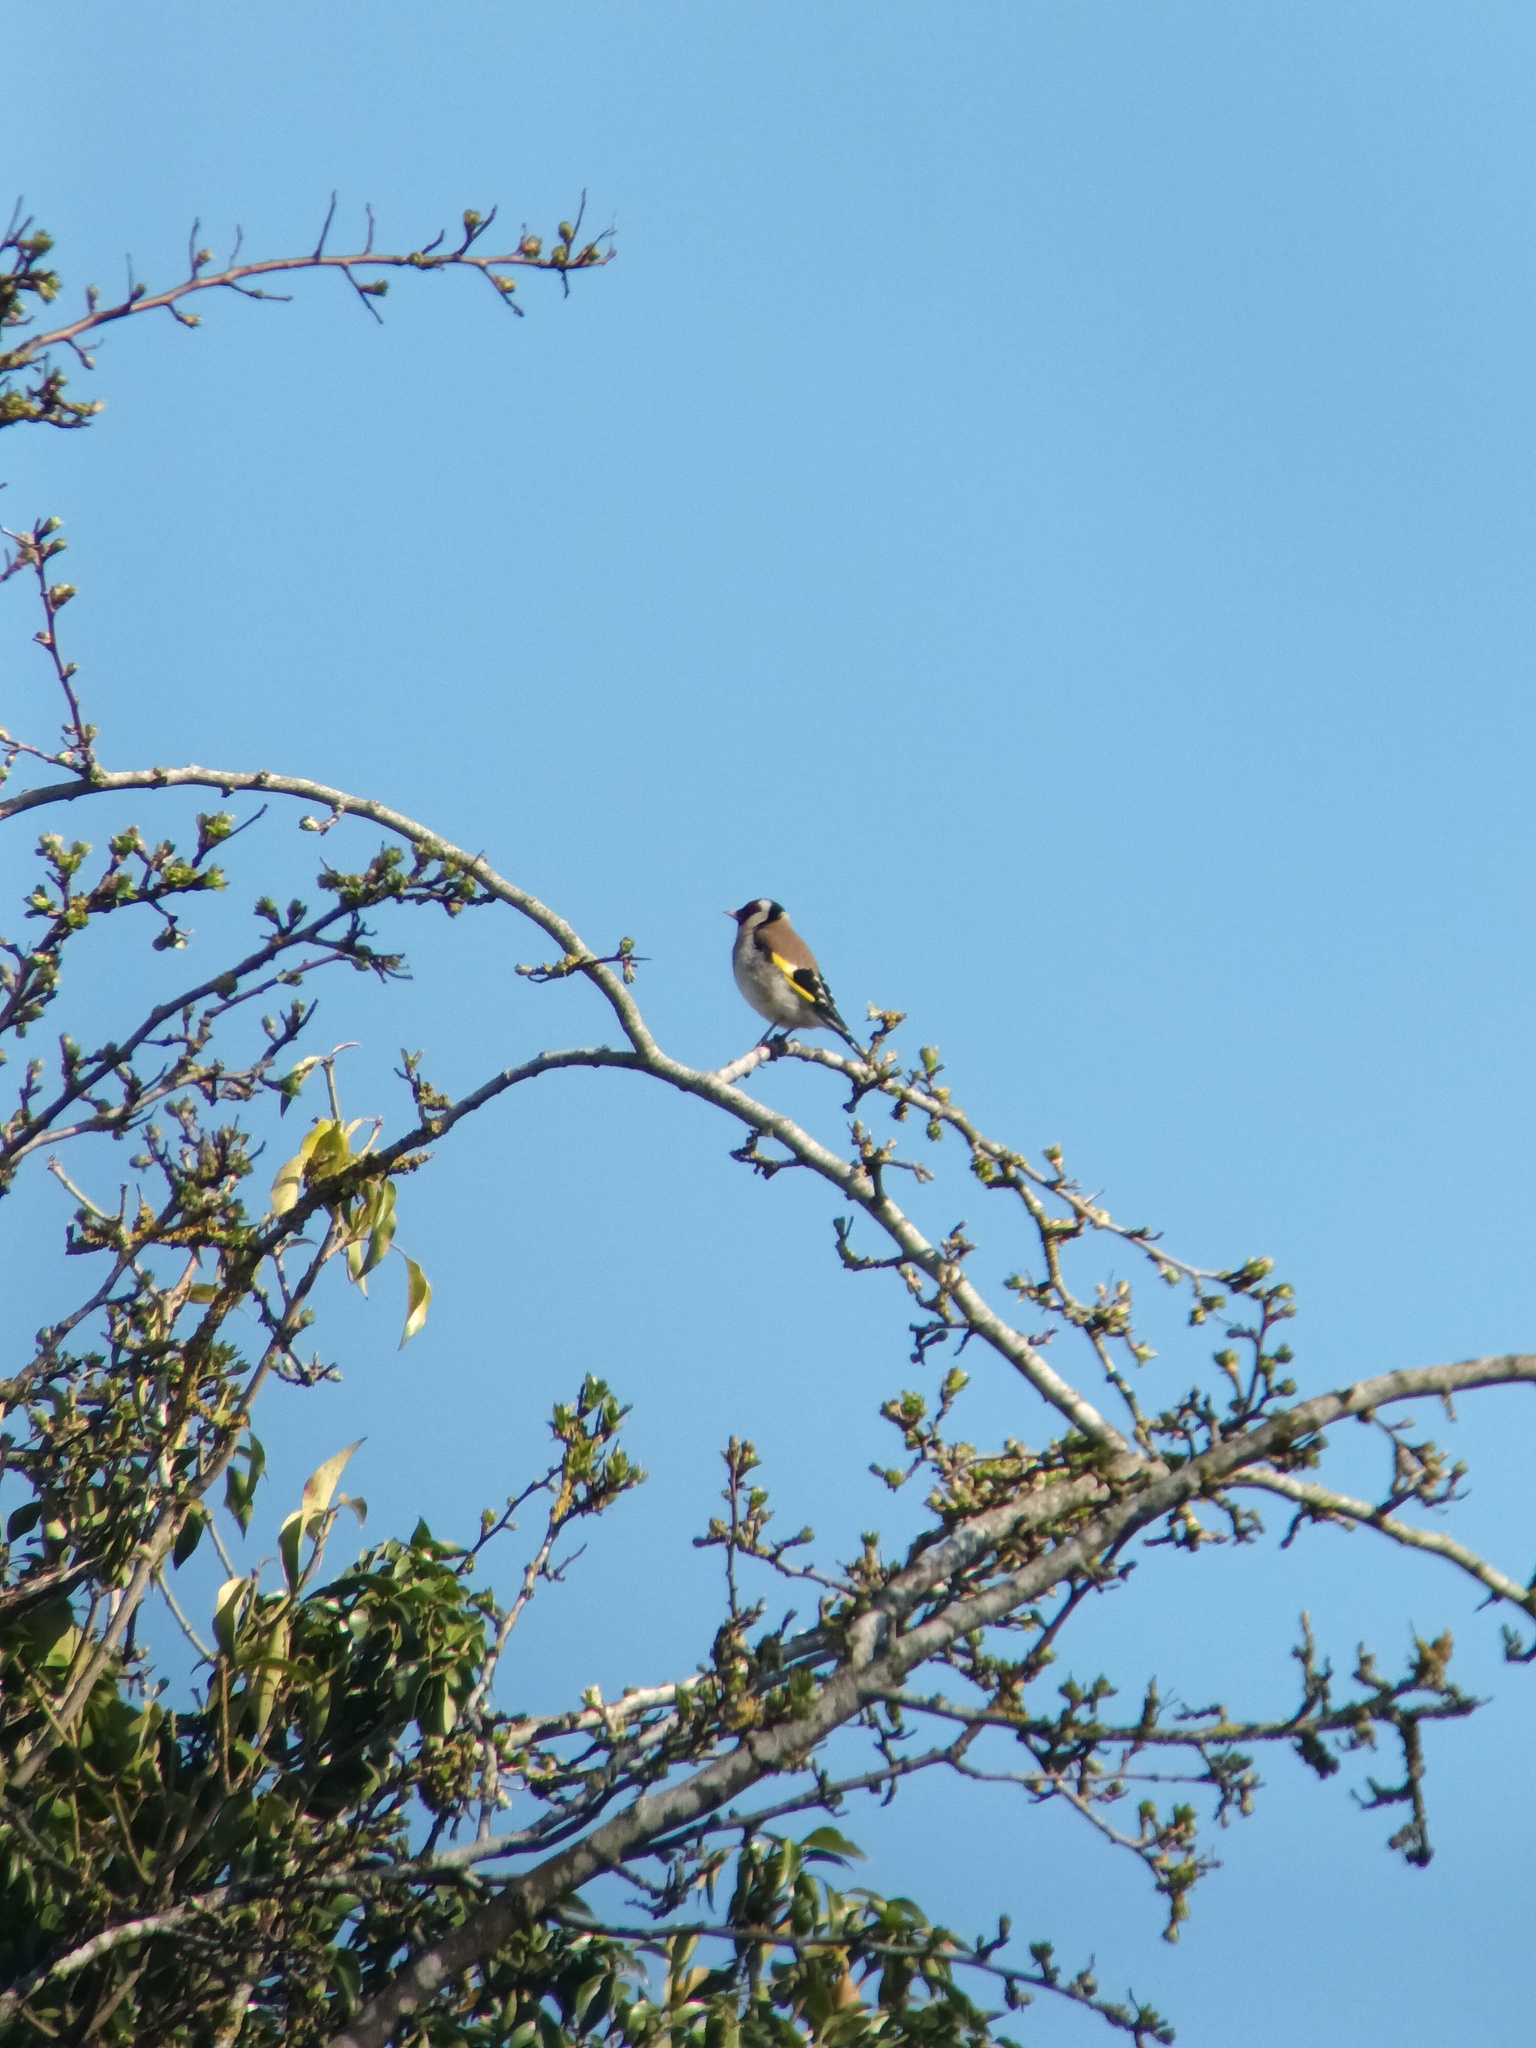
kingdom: Animalia
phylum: Chordata
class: Aves
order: Passeriformes
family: Fringillidae
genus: Carduelis
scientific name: Carduelis carduelis
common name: European goldfinch
